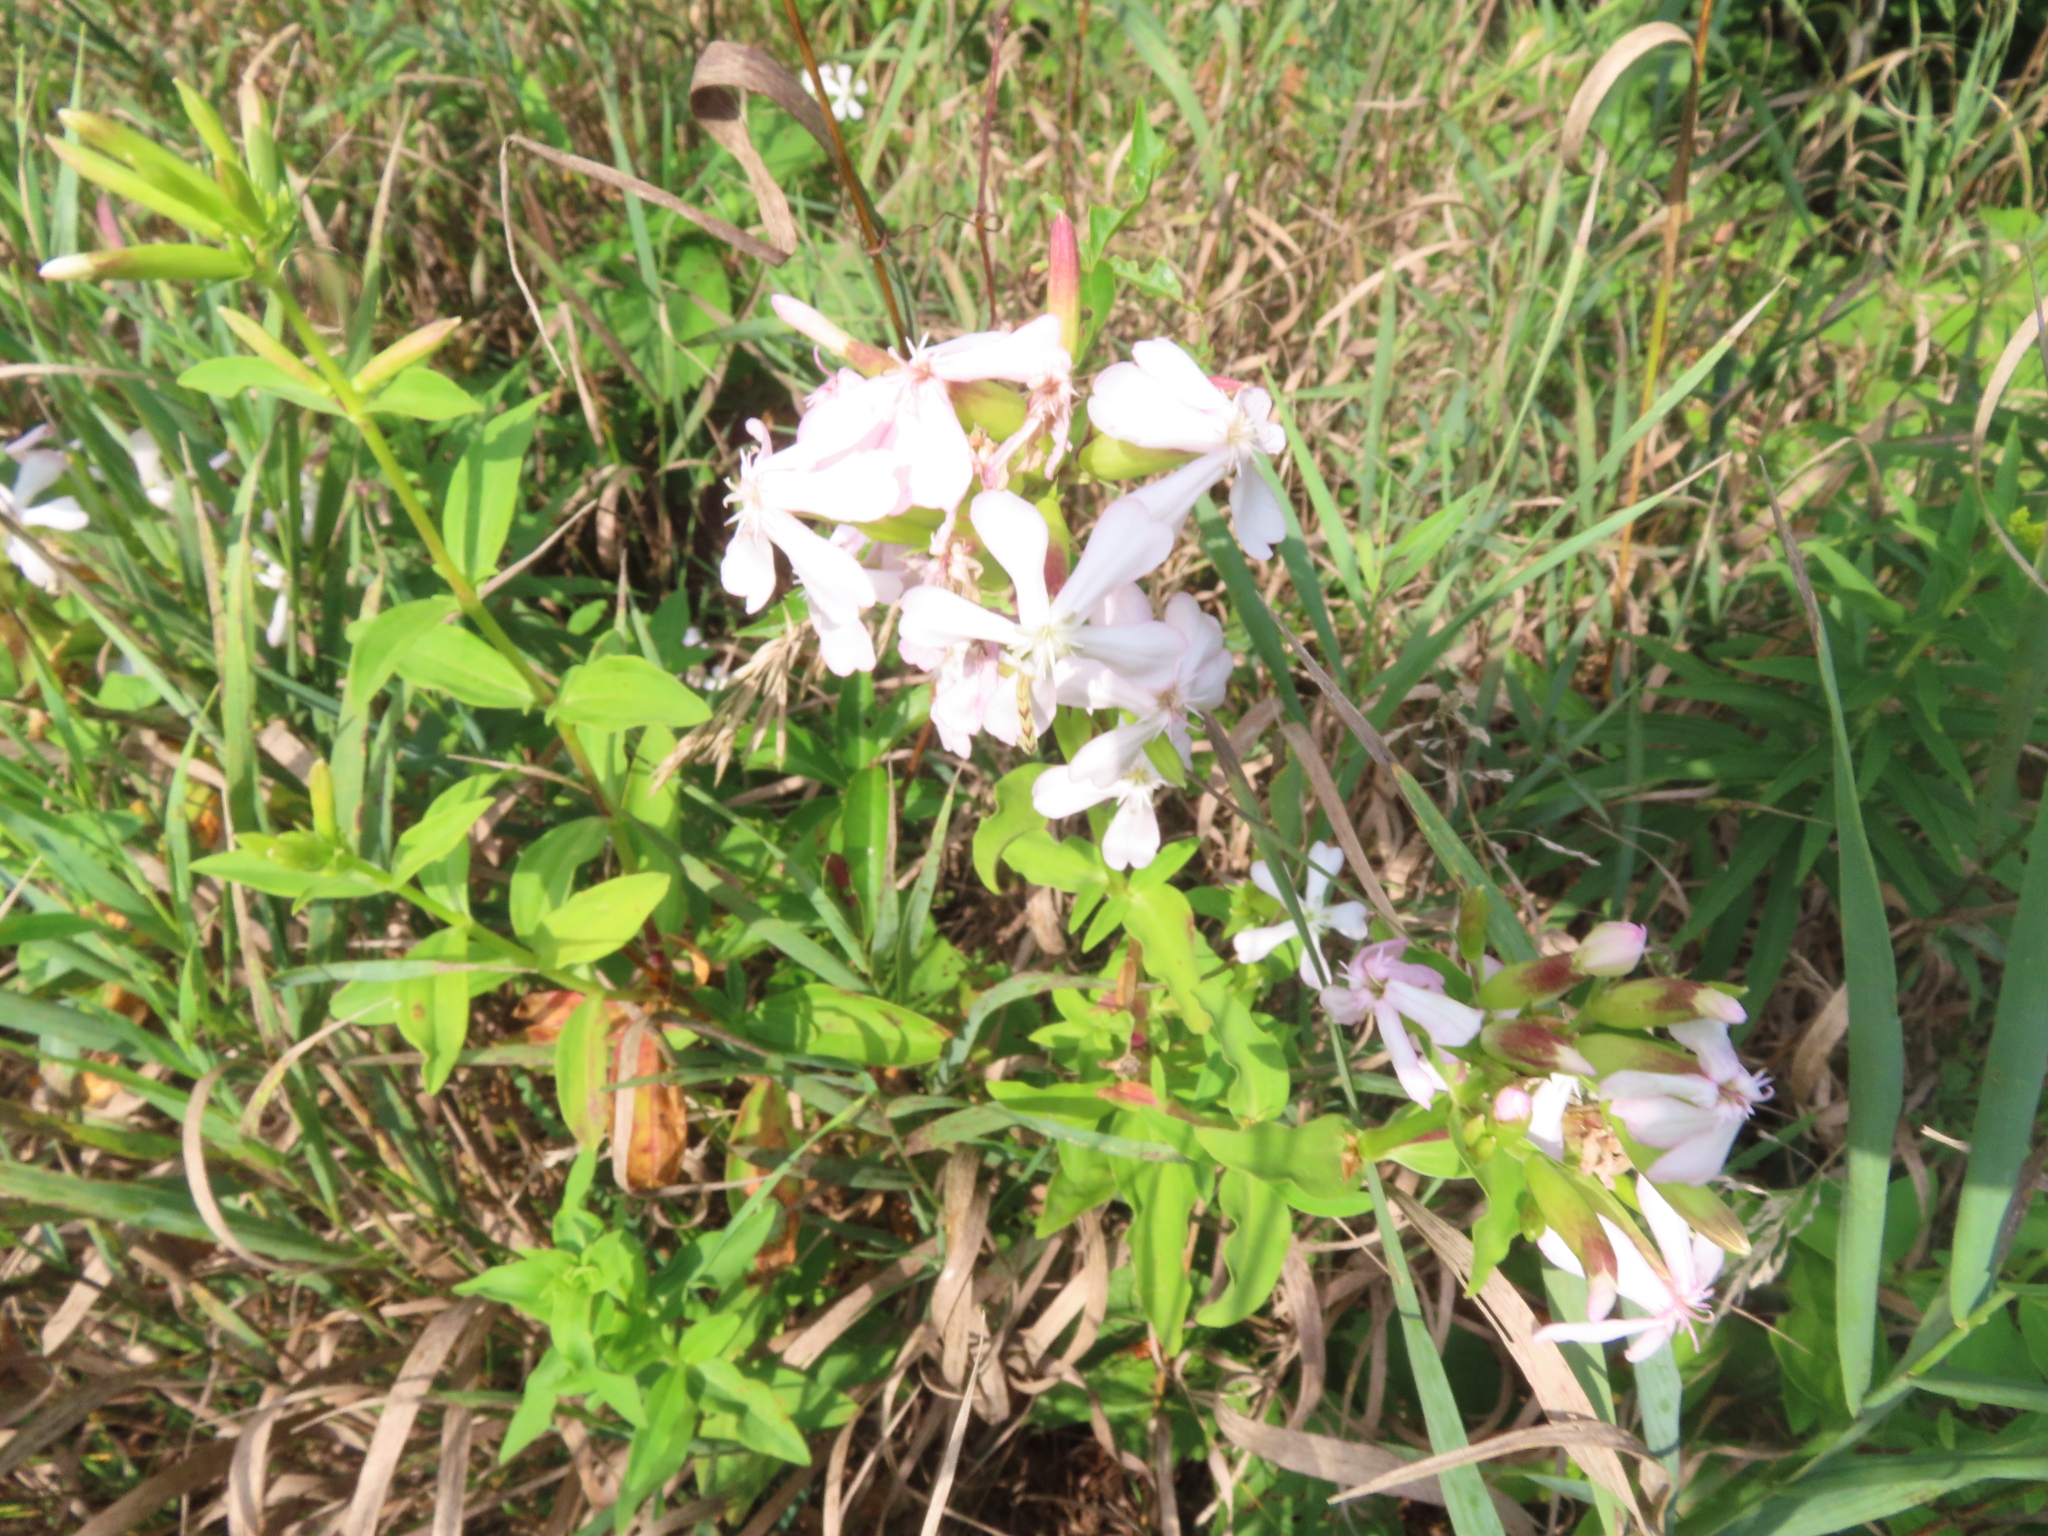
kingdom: Plantae
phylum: Tracheophyta
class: Magnoliopsida
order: Caryophyllales
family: Caryophyllaceae
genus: Saponaria
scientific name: Saponaria officinalis
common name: Soapwort
